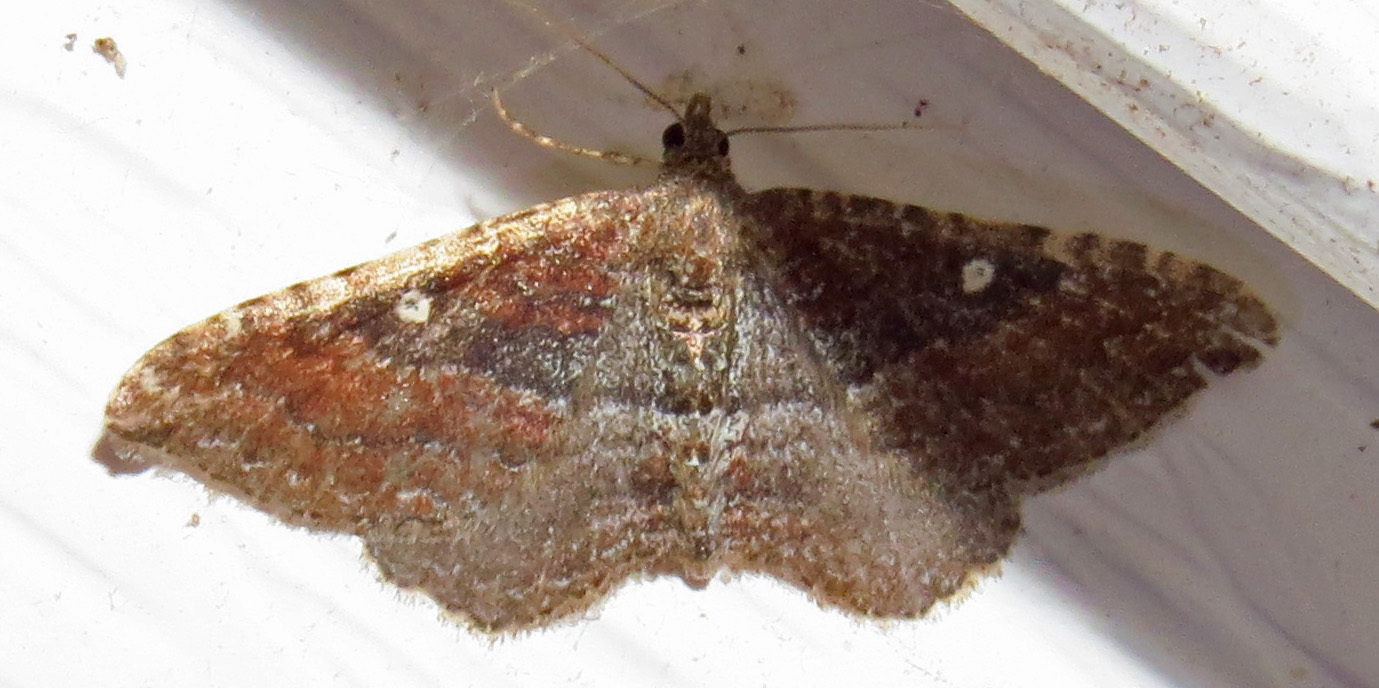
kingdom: Animalia
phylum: Arthropoda
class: Insecta
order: Lepidoptera
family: Geometridae
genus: Orthonama
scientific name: Orthonama obstipata
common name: The gem
